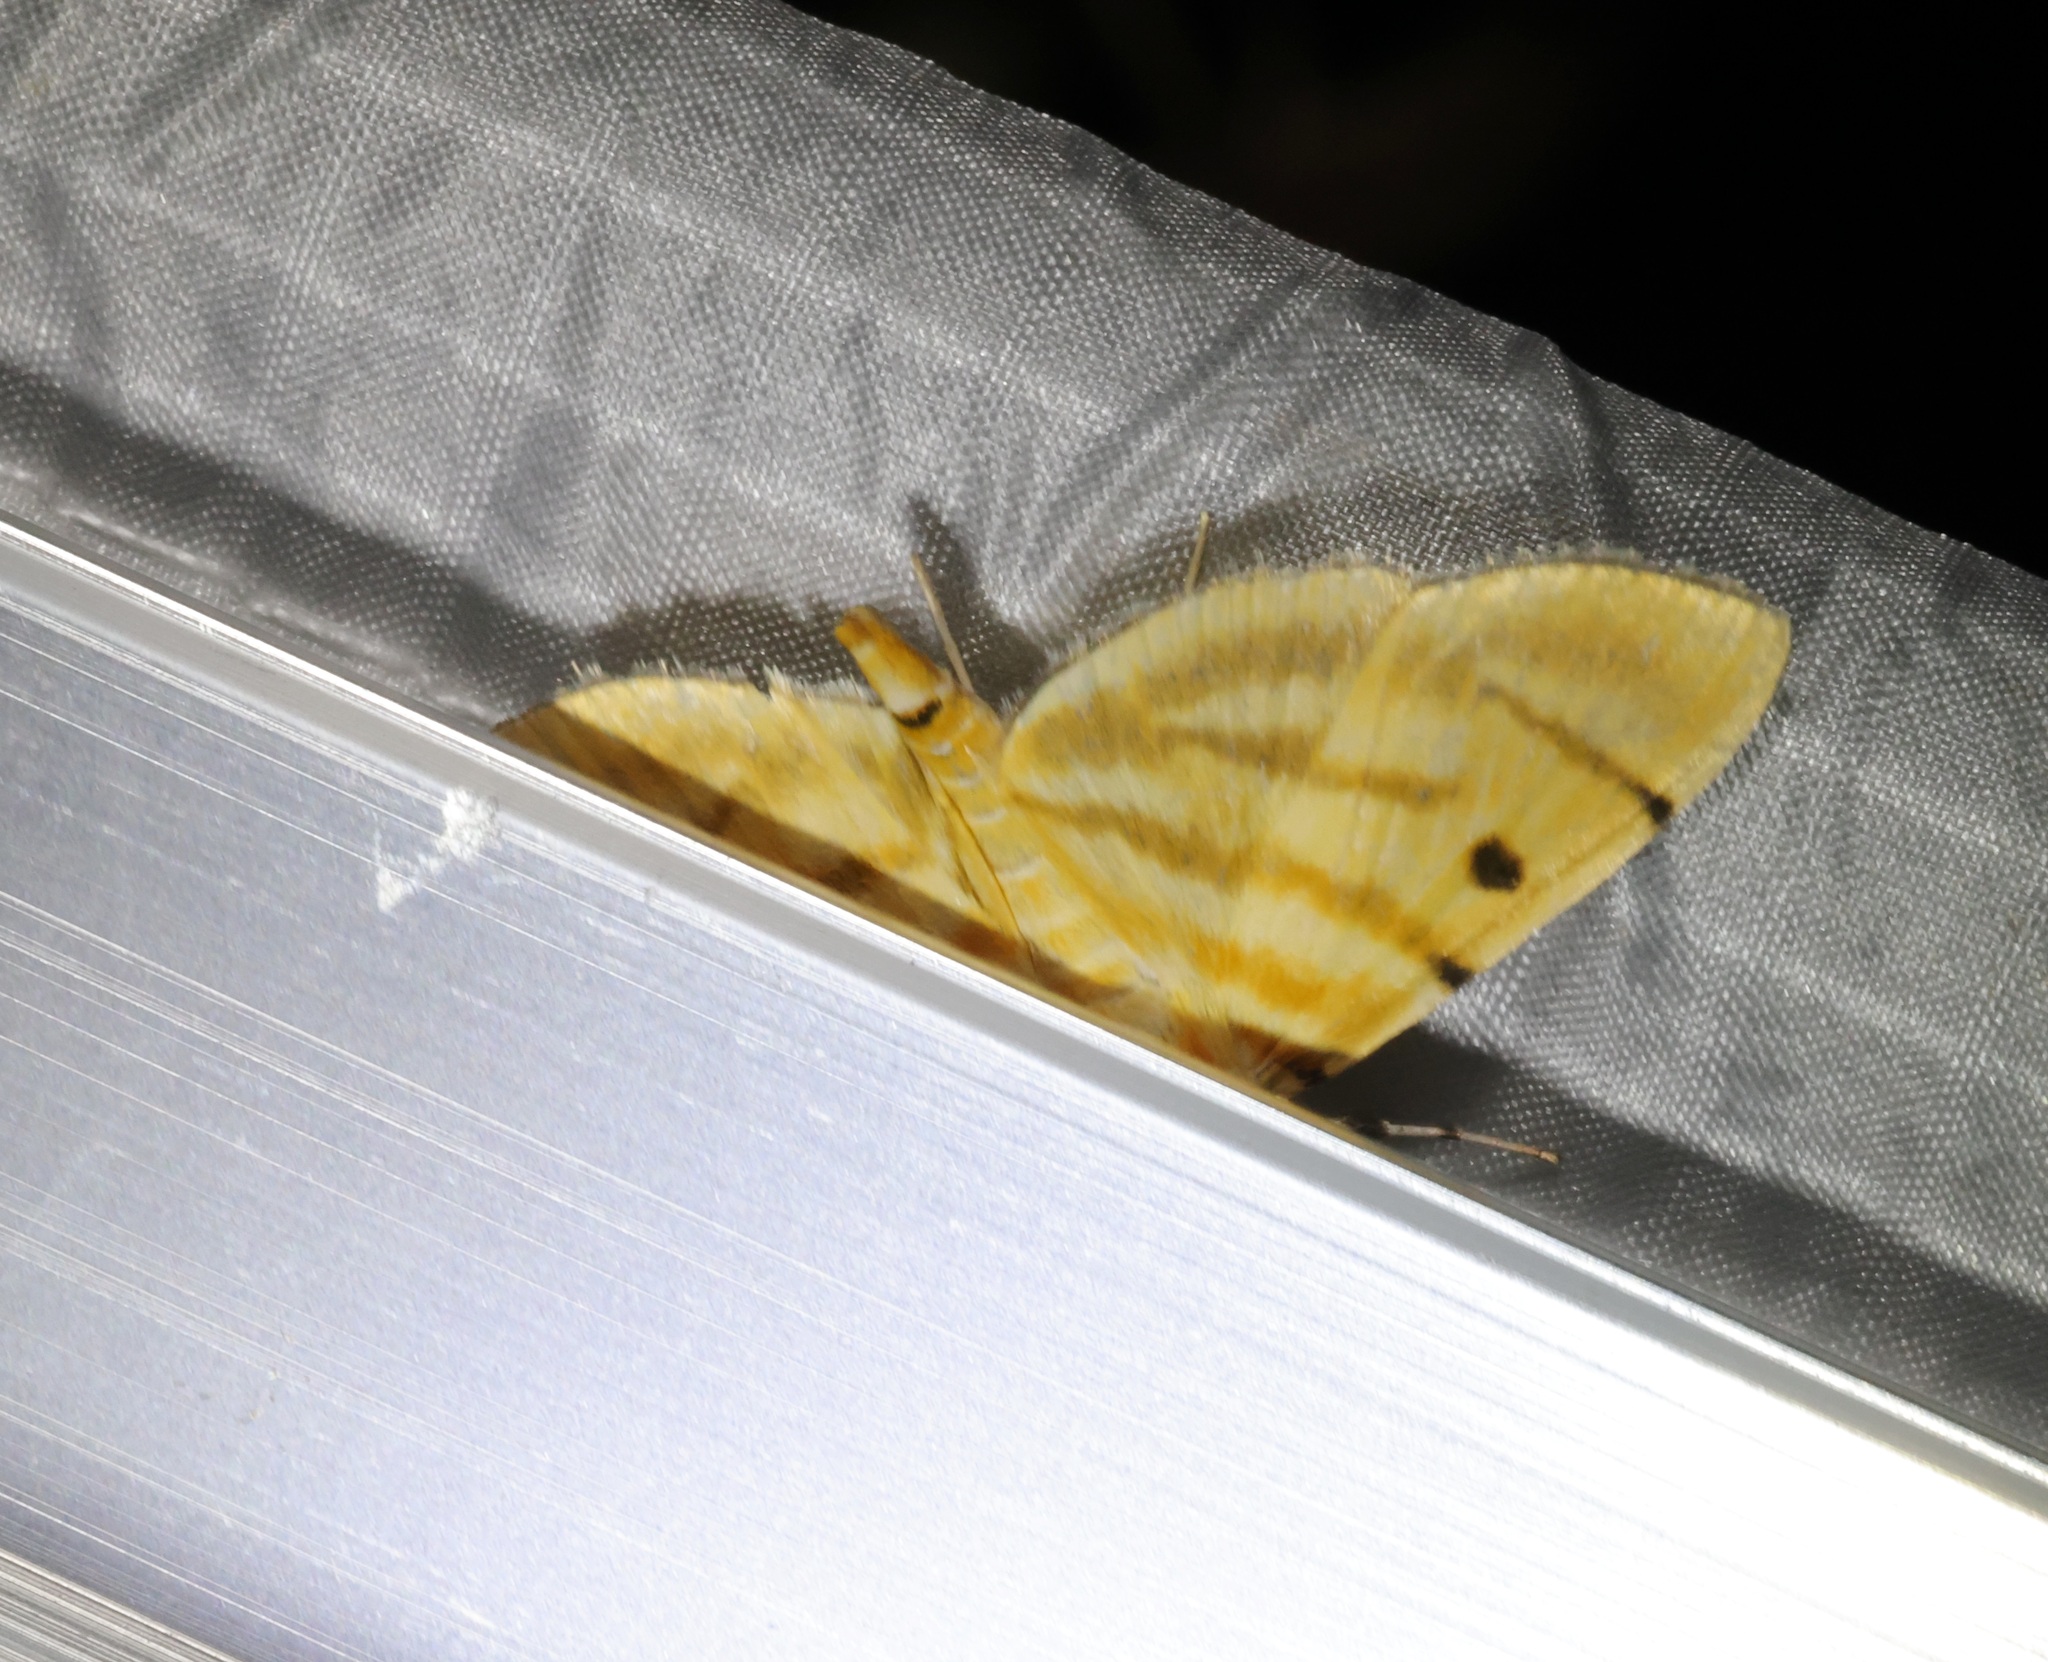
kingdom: Animalia
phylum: Arthropoda
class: Insecta
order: Lepidoptera
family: Crambidae
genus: Orthospila
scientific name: Orthospila orissusalis
